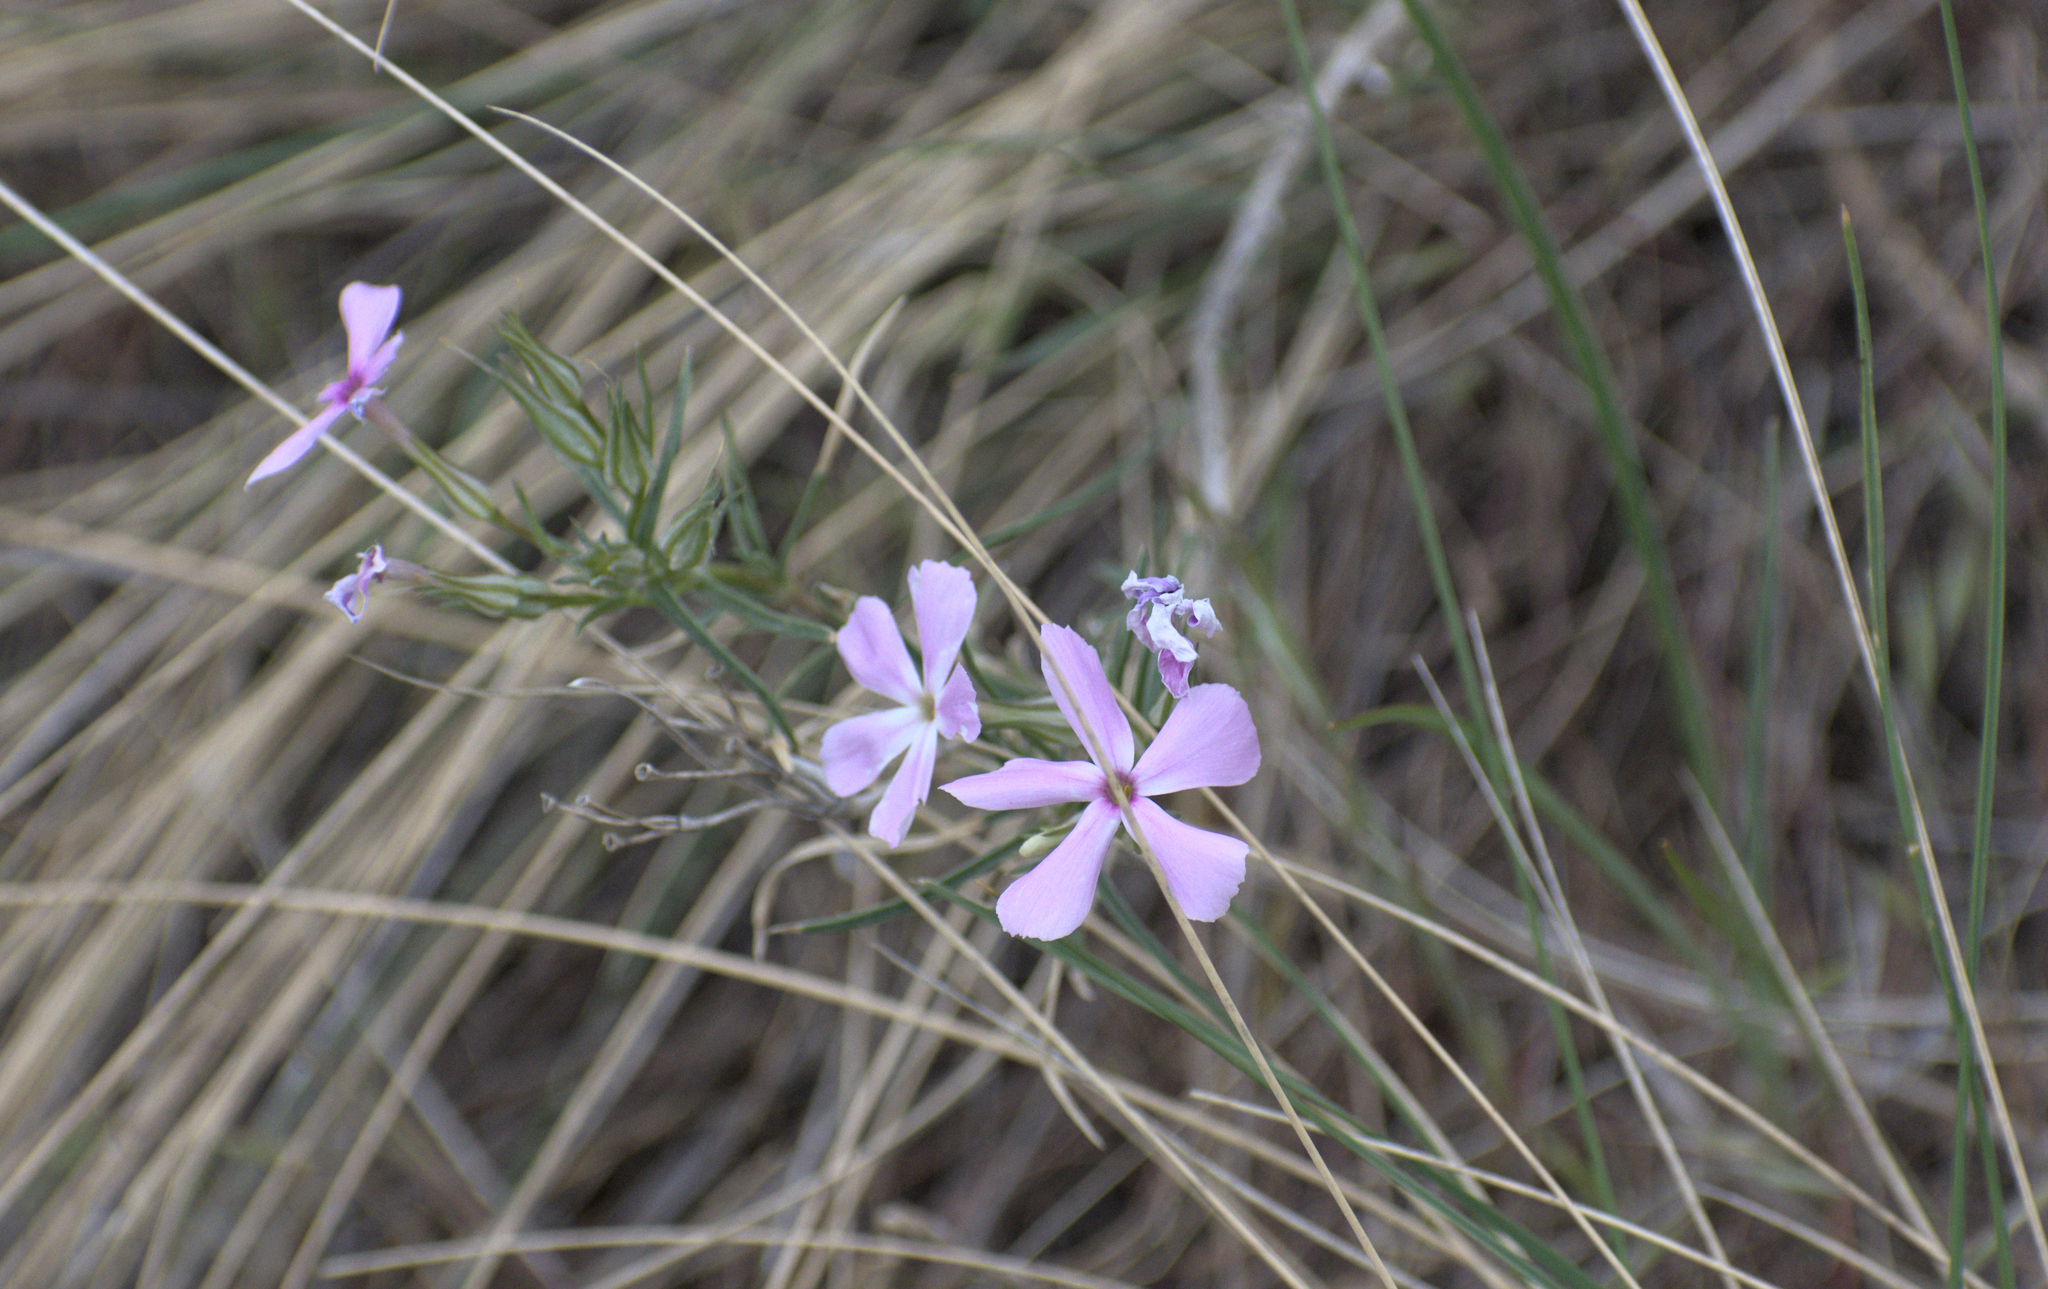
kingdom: Plantae
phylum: Tracheophyta
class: Magnoliopsida
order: Ericales
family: Polemoniaceae
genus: Phlox
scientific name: Phlox longifolia
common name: Longleaf phlox
